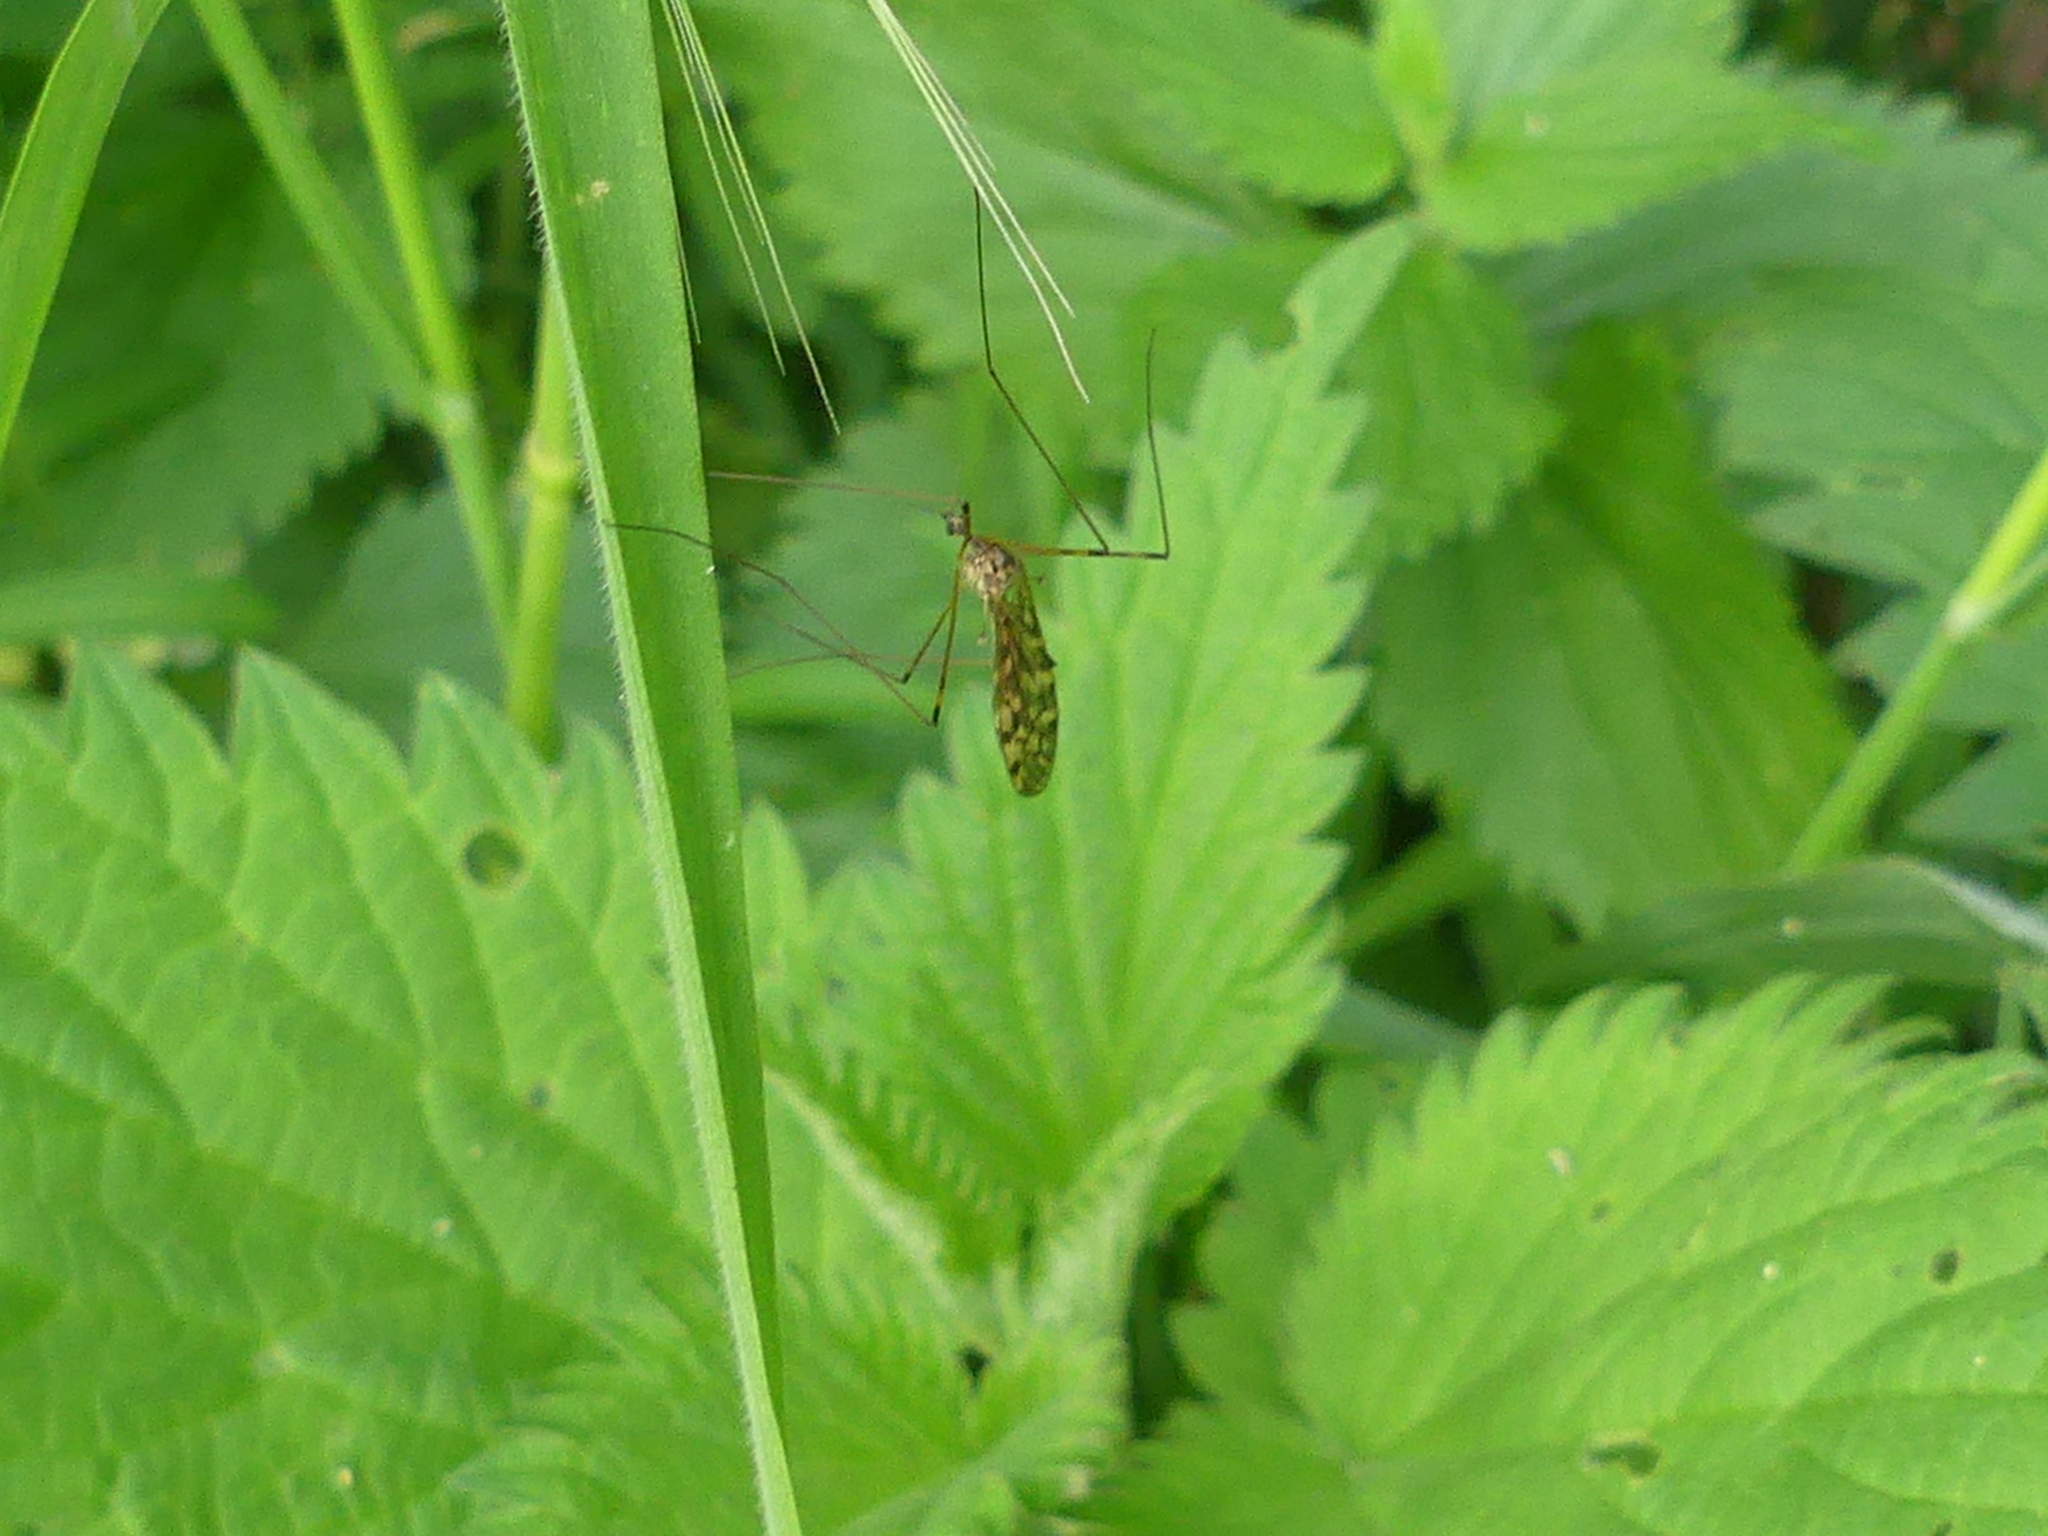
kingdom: Animalia
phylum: Arthropoda
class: Insecta
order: Diptera
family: Limoniidae
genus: Limonia
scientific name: Limonia hercegovinae
